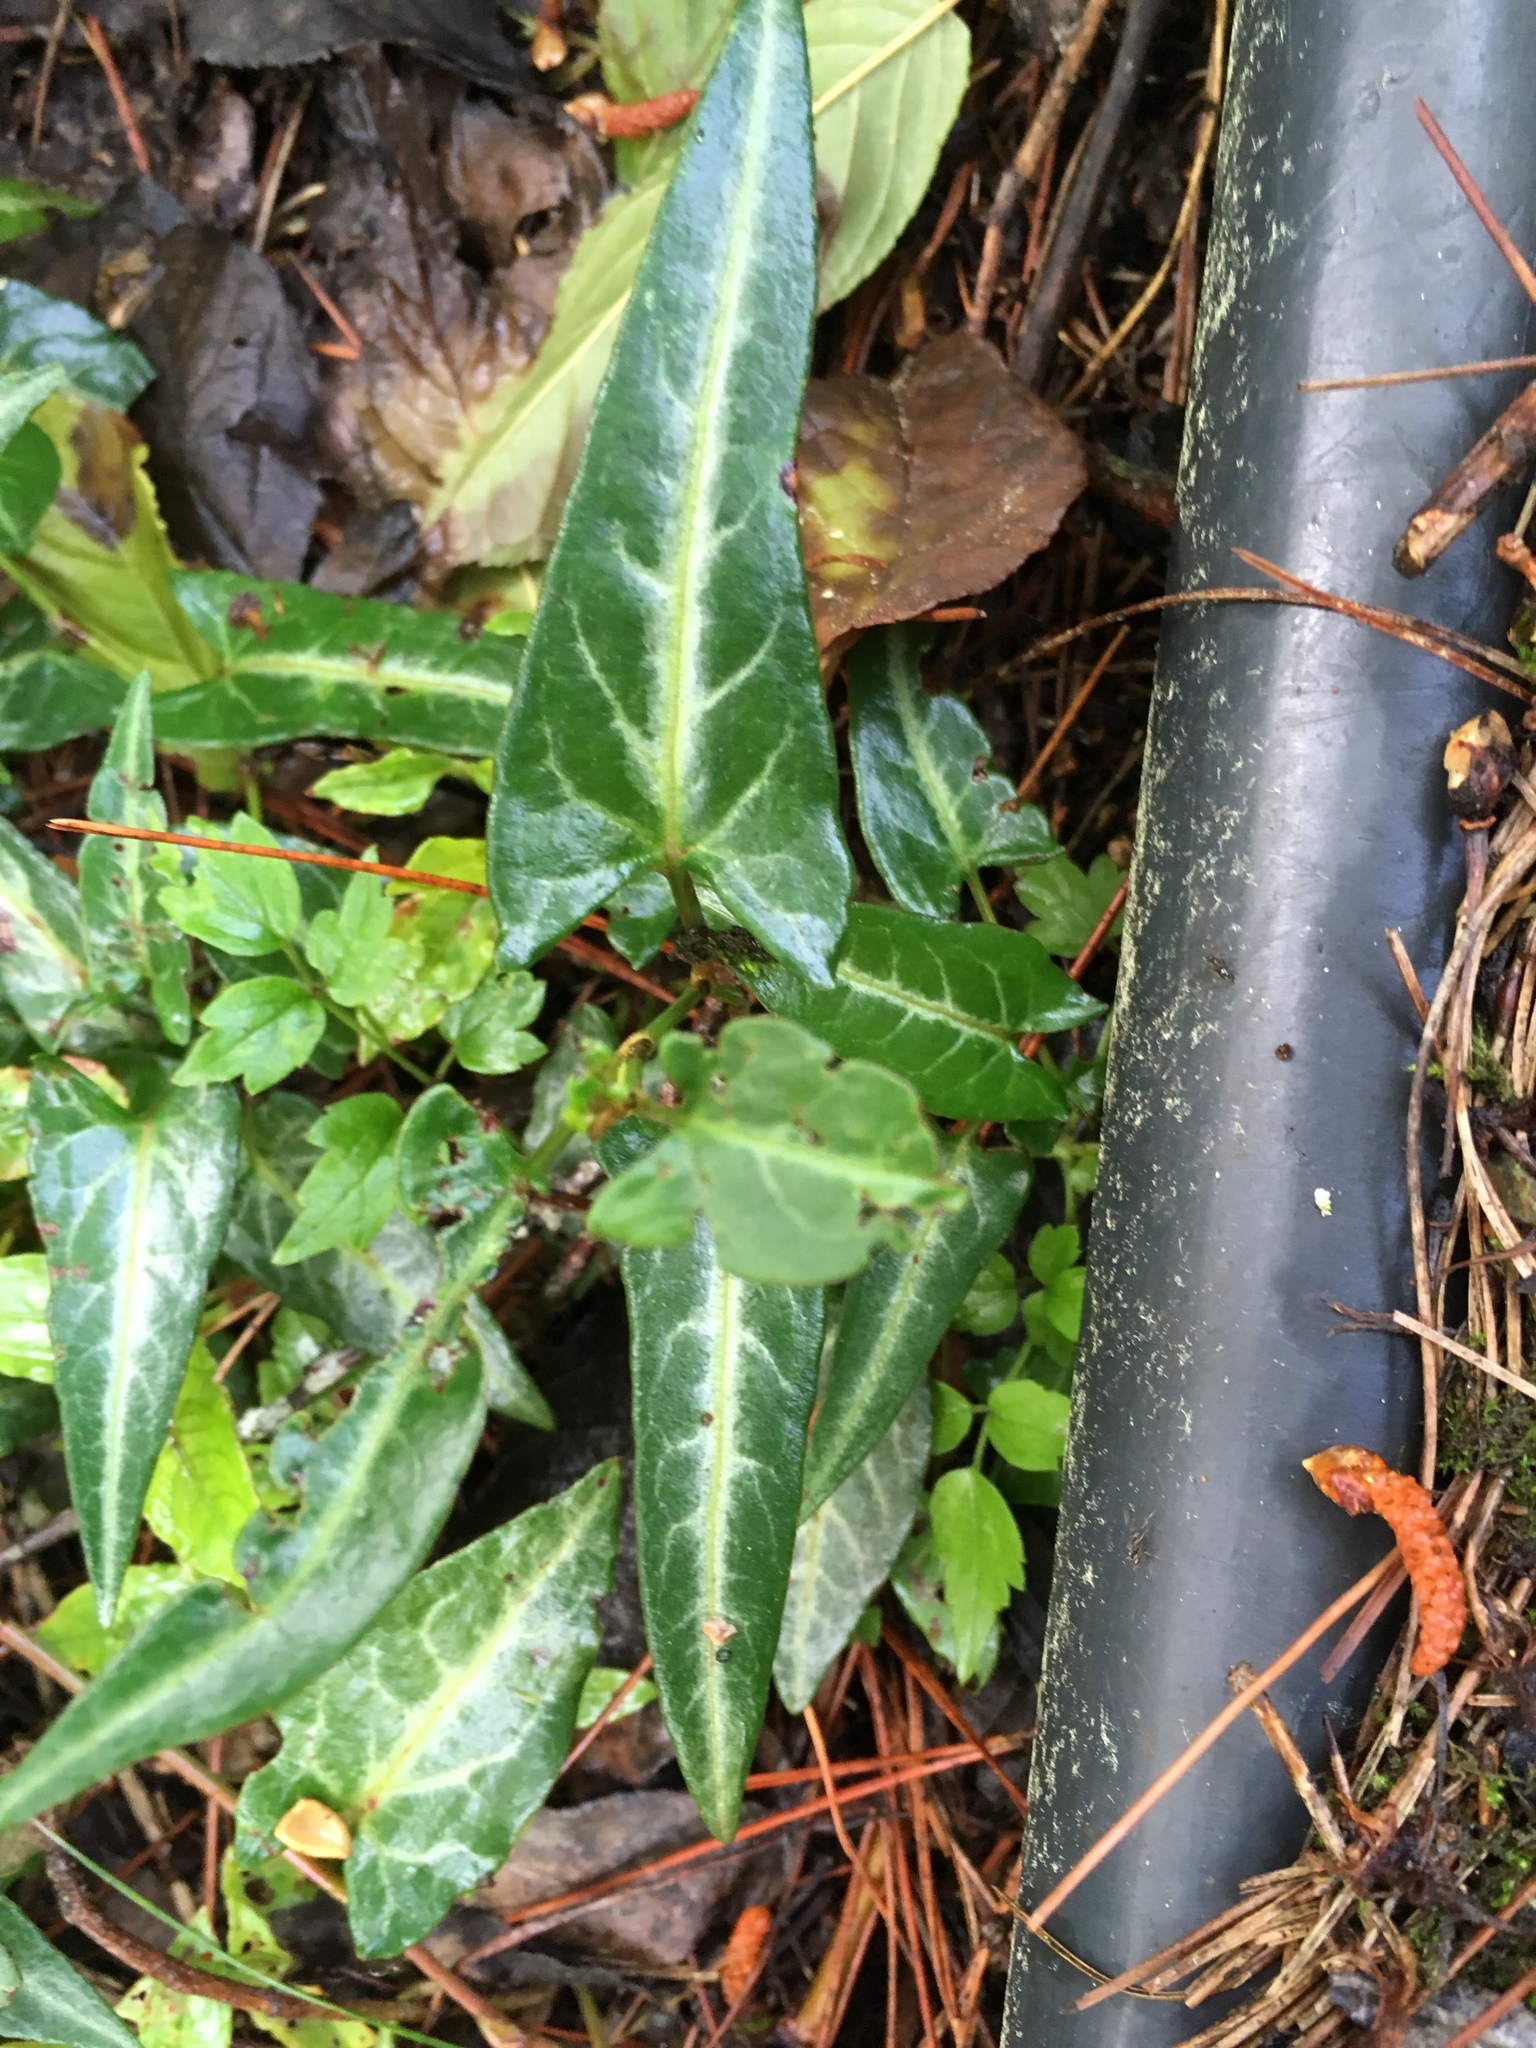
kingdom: Plantae
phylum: Tracheophyta
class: Magnoliopsida
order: Caryophyllales
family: Polygonaceae
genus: Reynoutria
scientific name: Reynoutria multiflora
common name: Chinese fleeceflower
